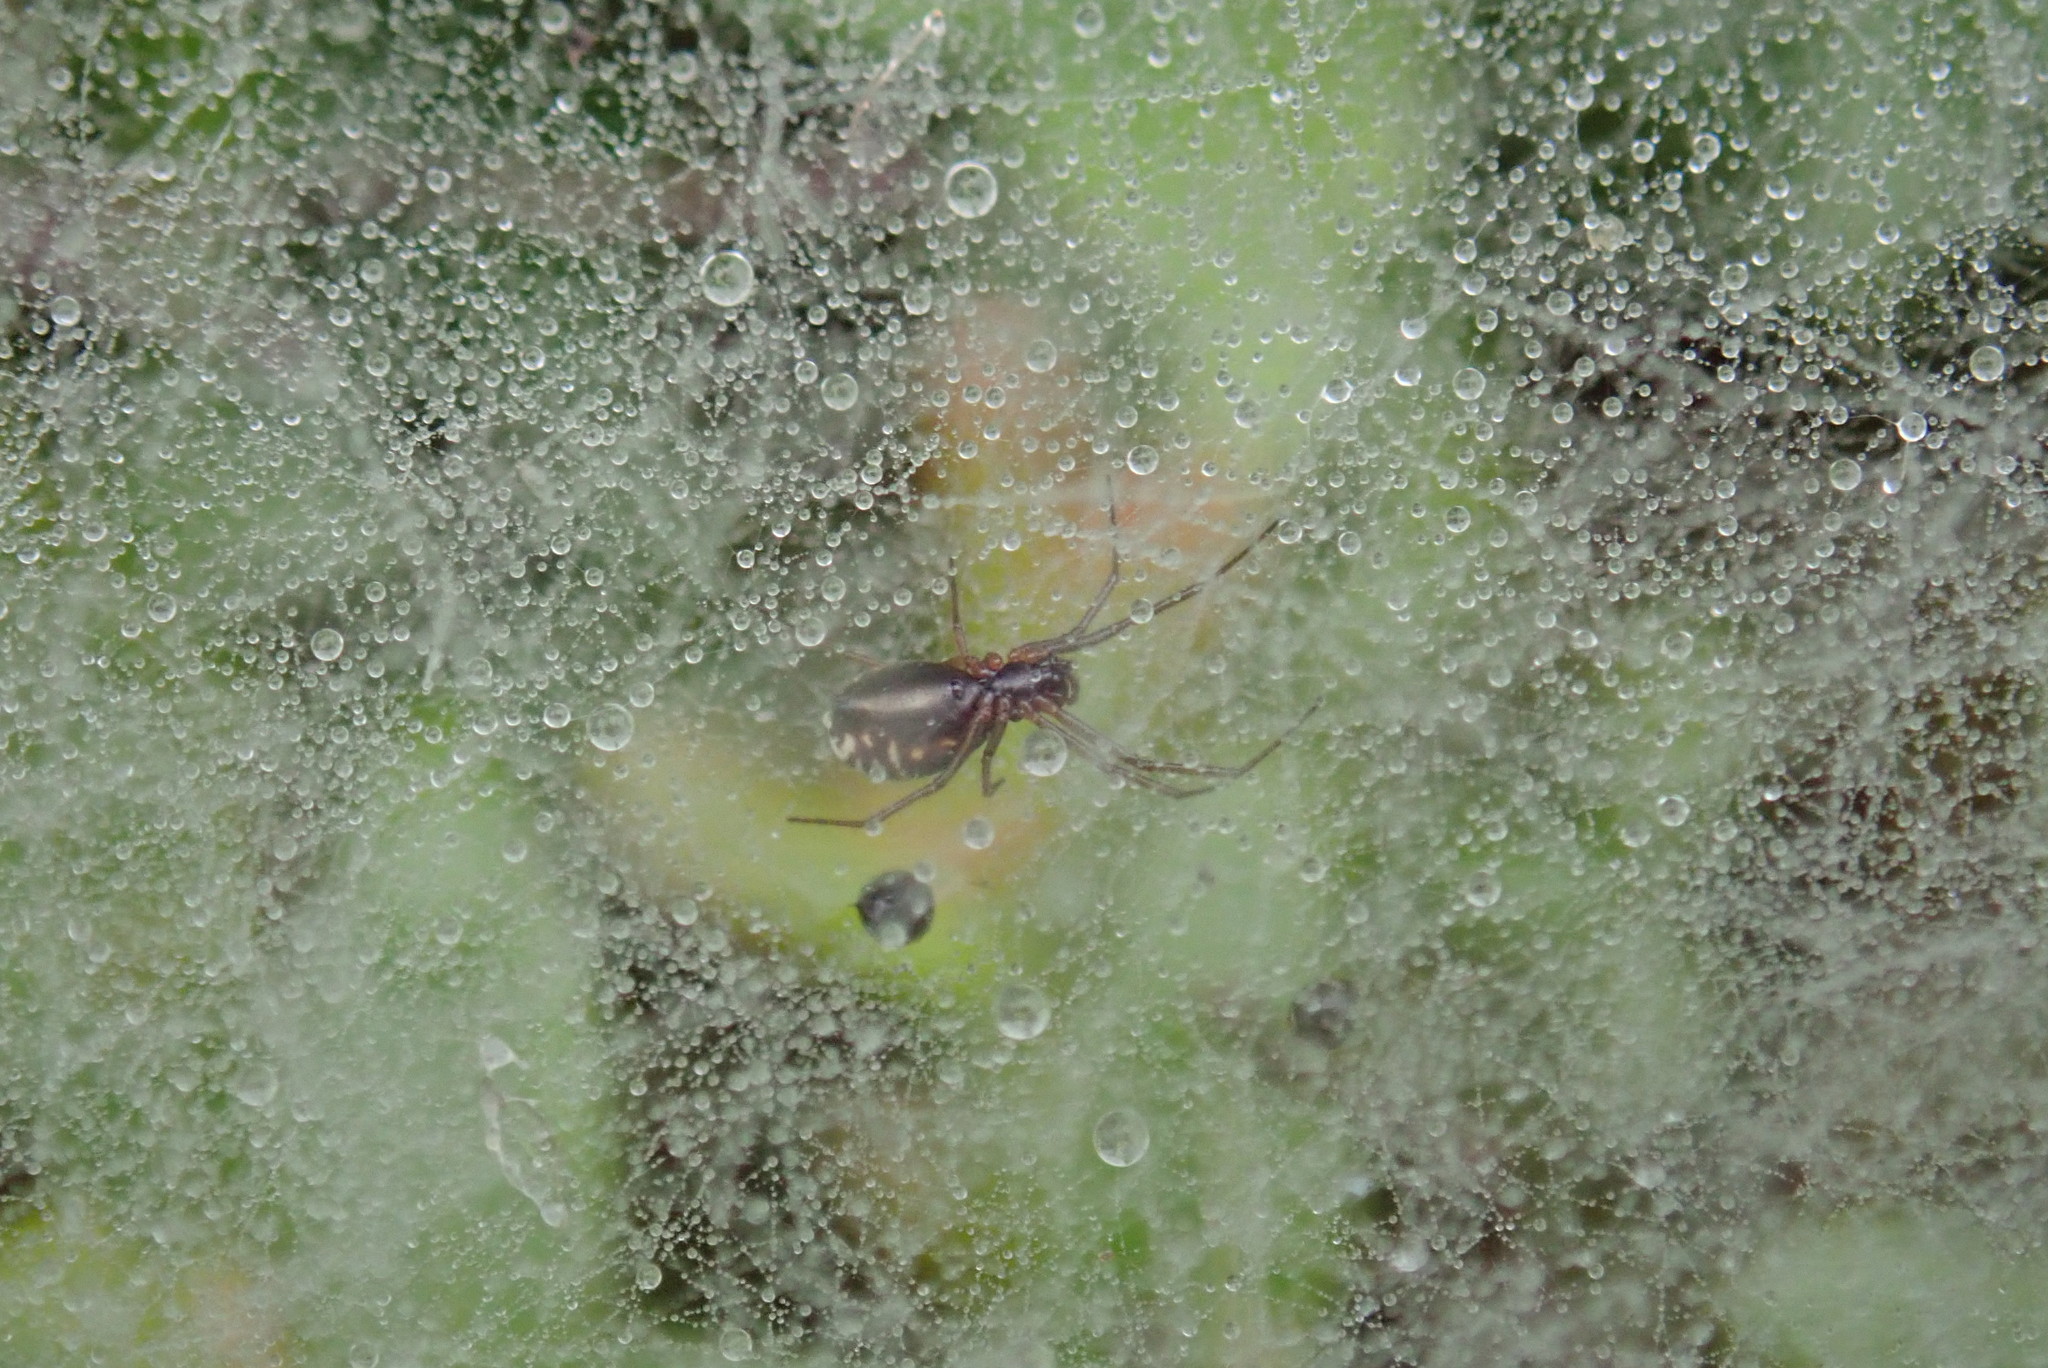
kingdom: Animalia
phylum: Arthropoda
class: Arachnida
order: Araneae
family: Linyphiidae
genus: Frontinella
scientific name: Frontinella pyramitela
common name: Bowl-and-doily spider
